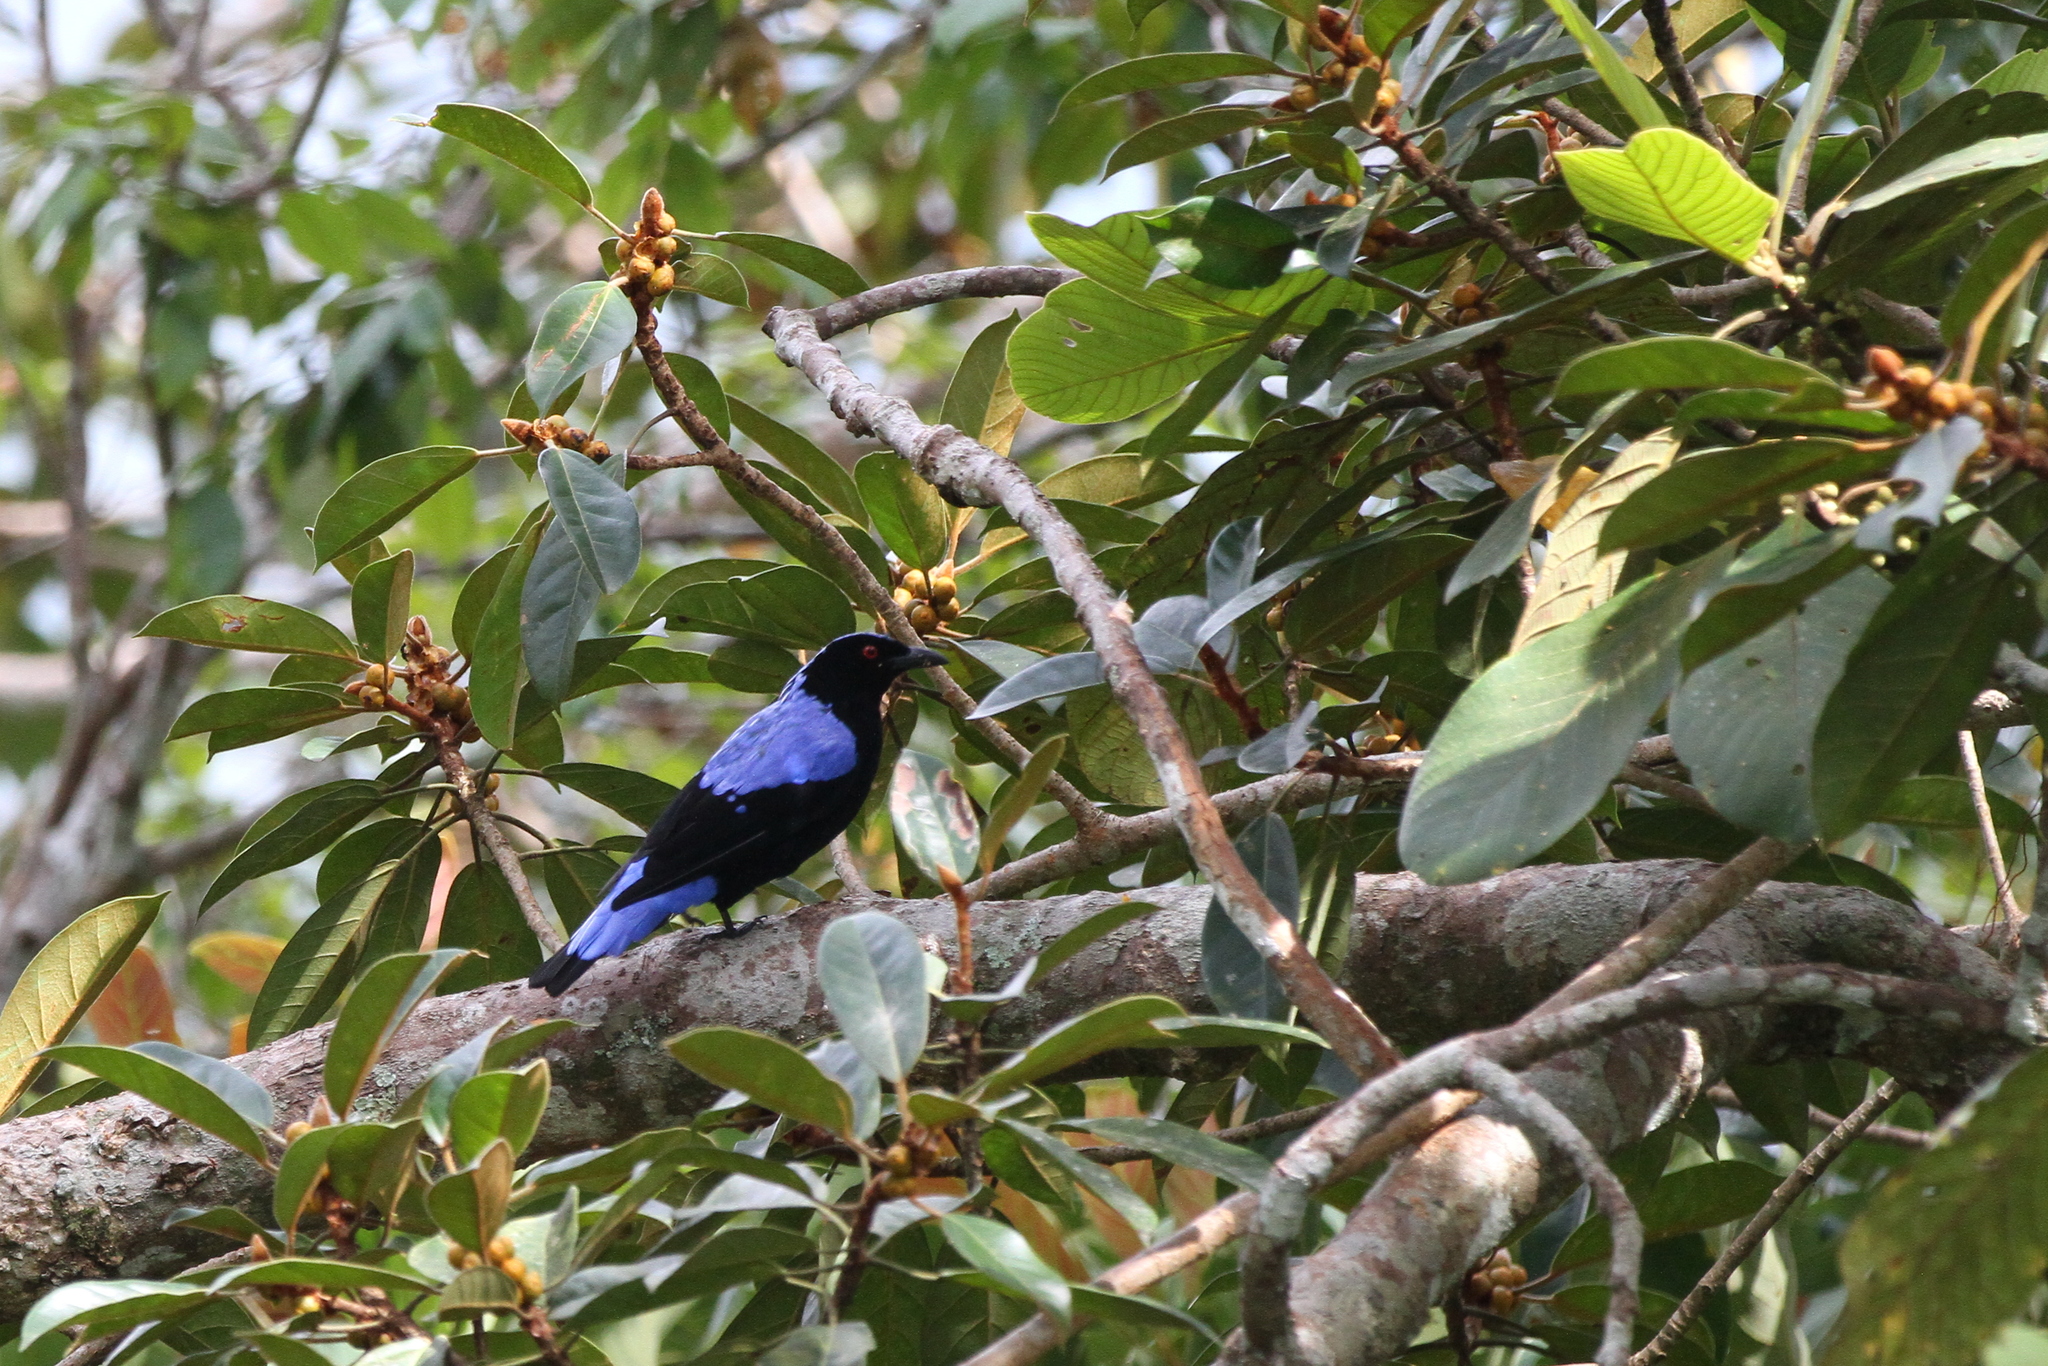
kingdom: Animalia
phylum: Chordata
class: Aves
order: Passeriformes
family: Irenidae
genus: Irena
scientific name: Irena puella
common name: Asian fairy-bluebird
